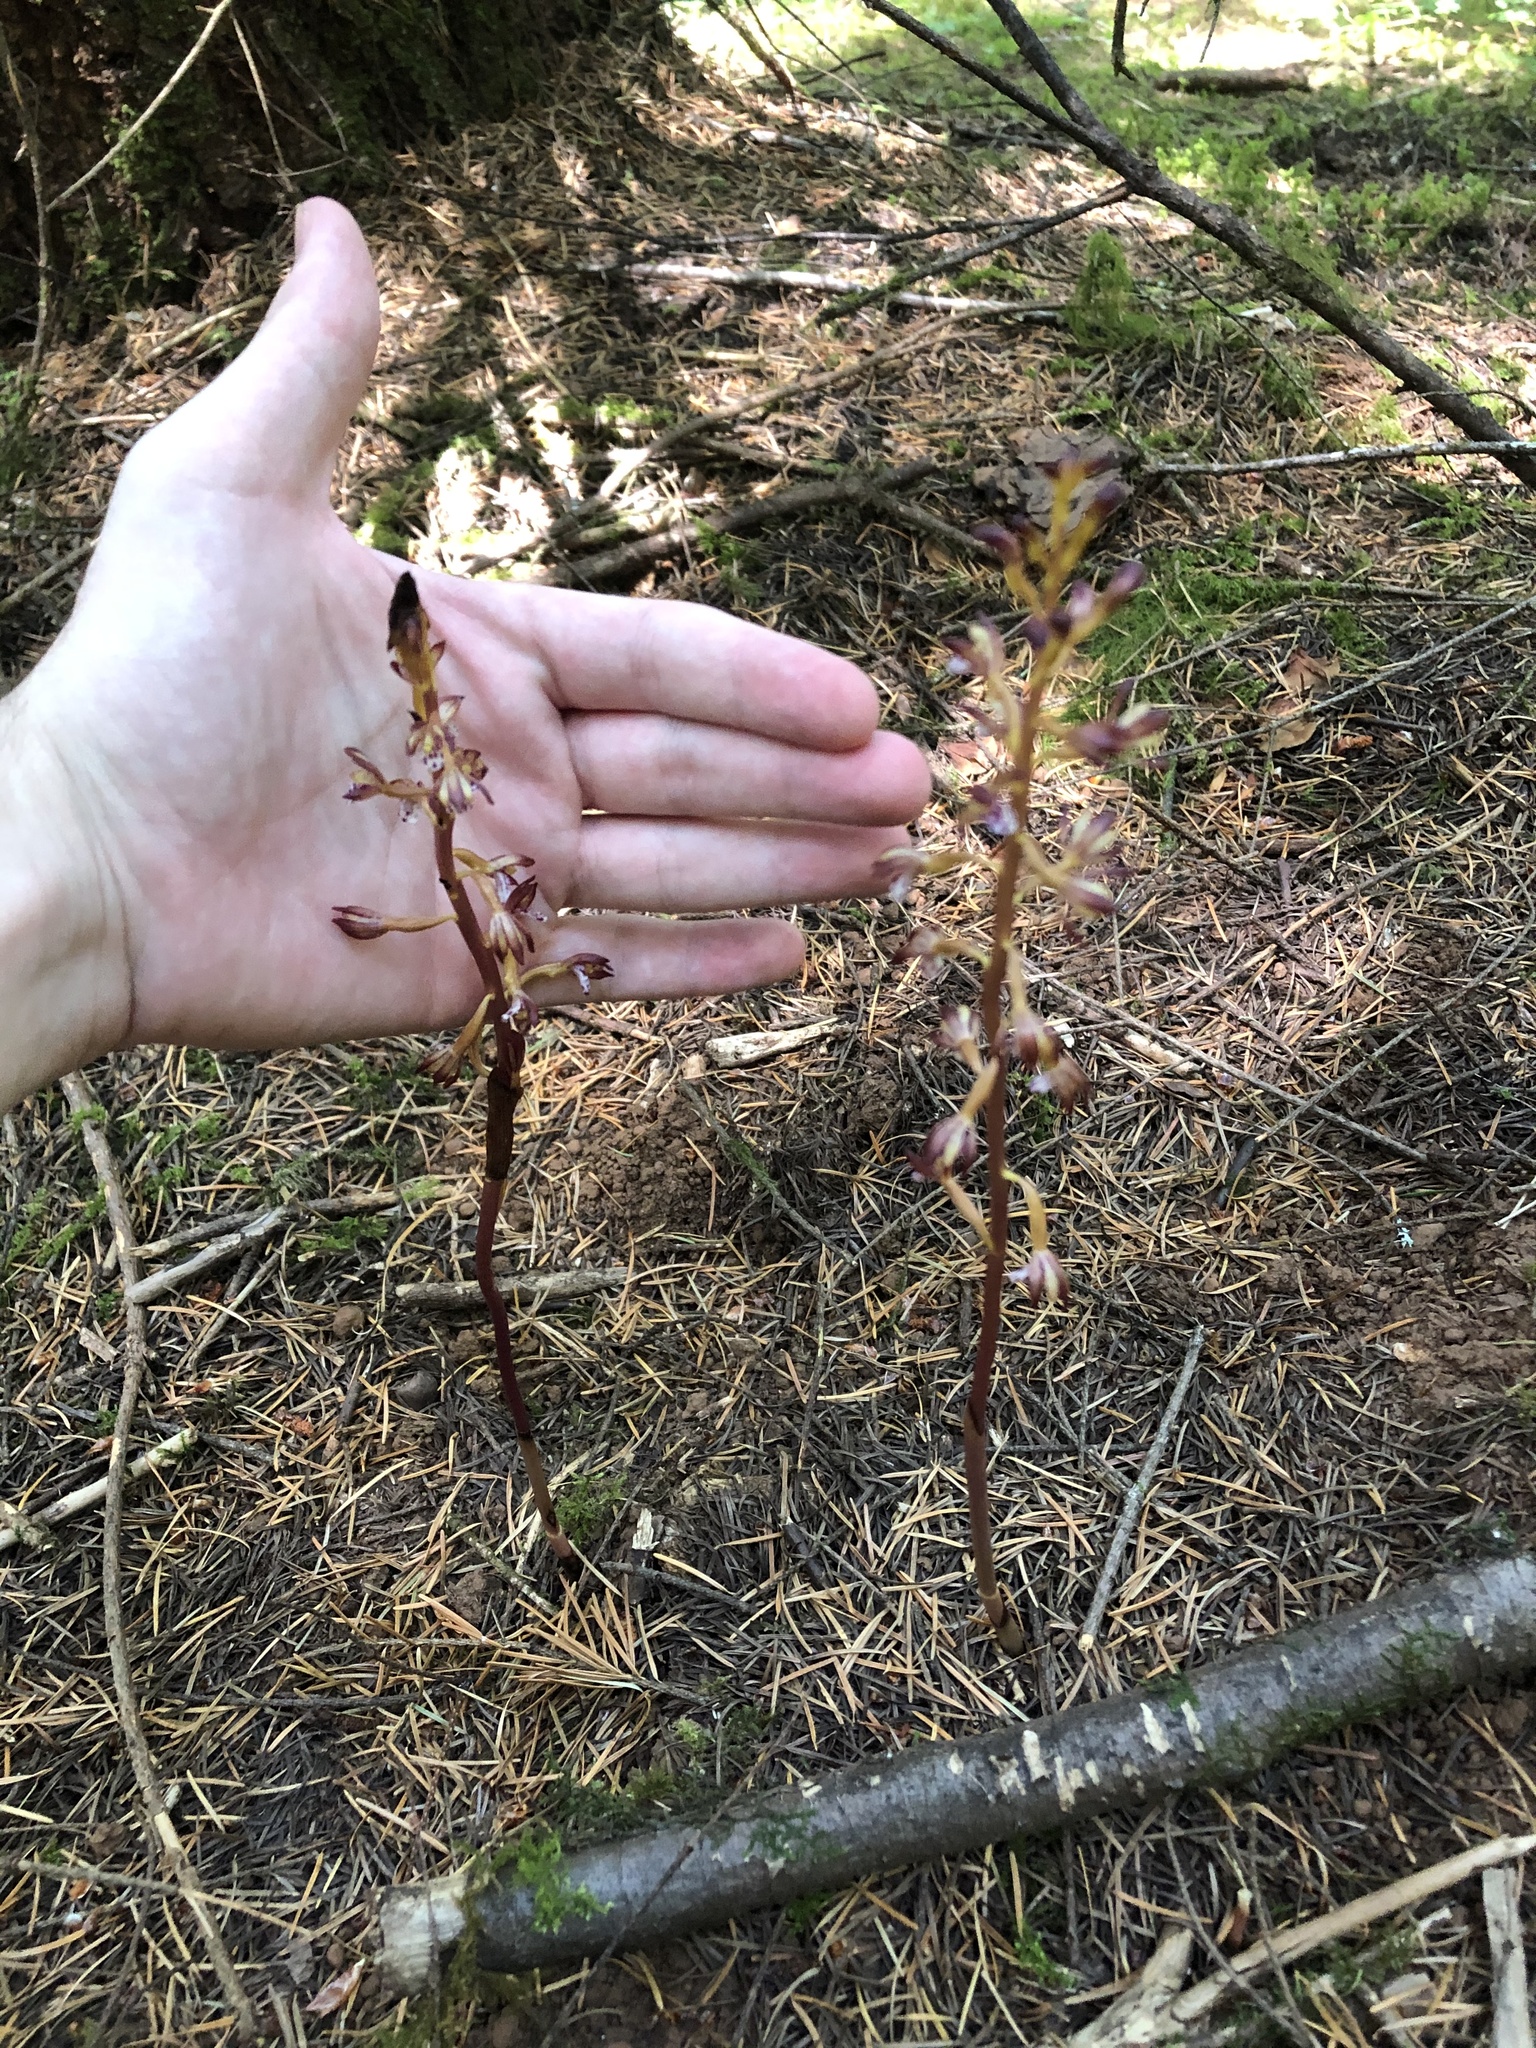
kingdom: Plantae
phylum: Tracheophyta
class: Liliopsida
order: Asparagales
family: Orchidaceae
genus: Corallorhiza
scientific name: Corallorhiza maculata
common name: Spotted coralroot
